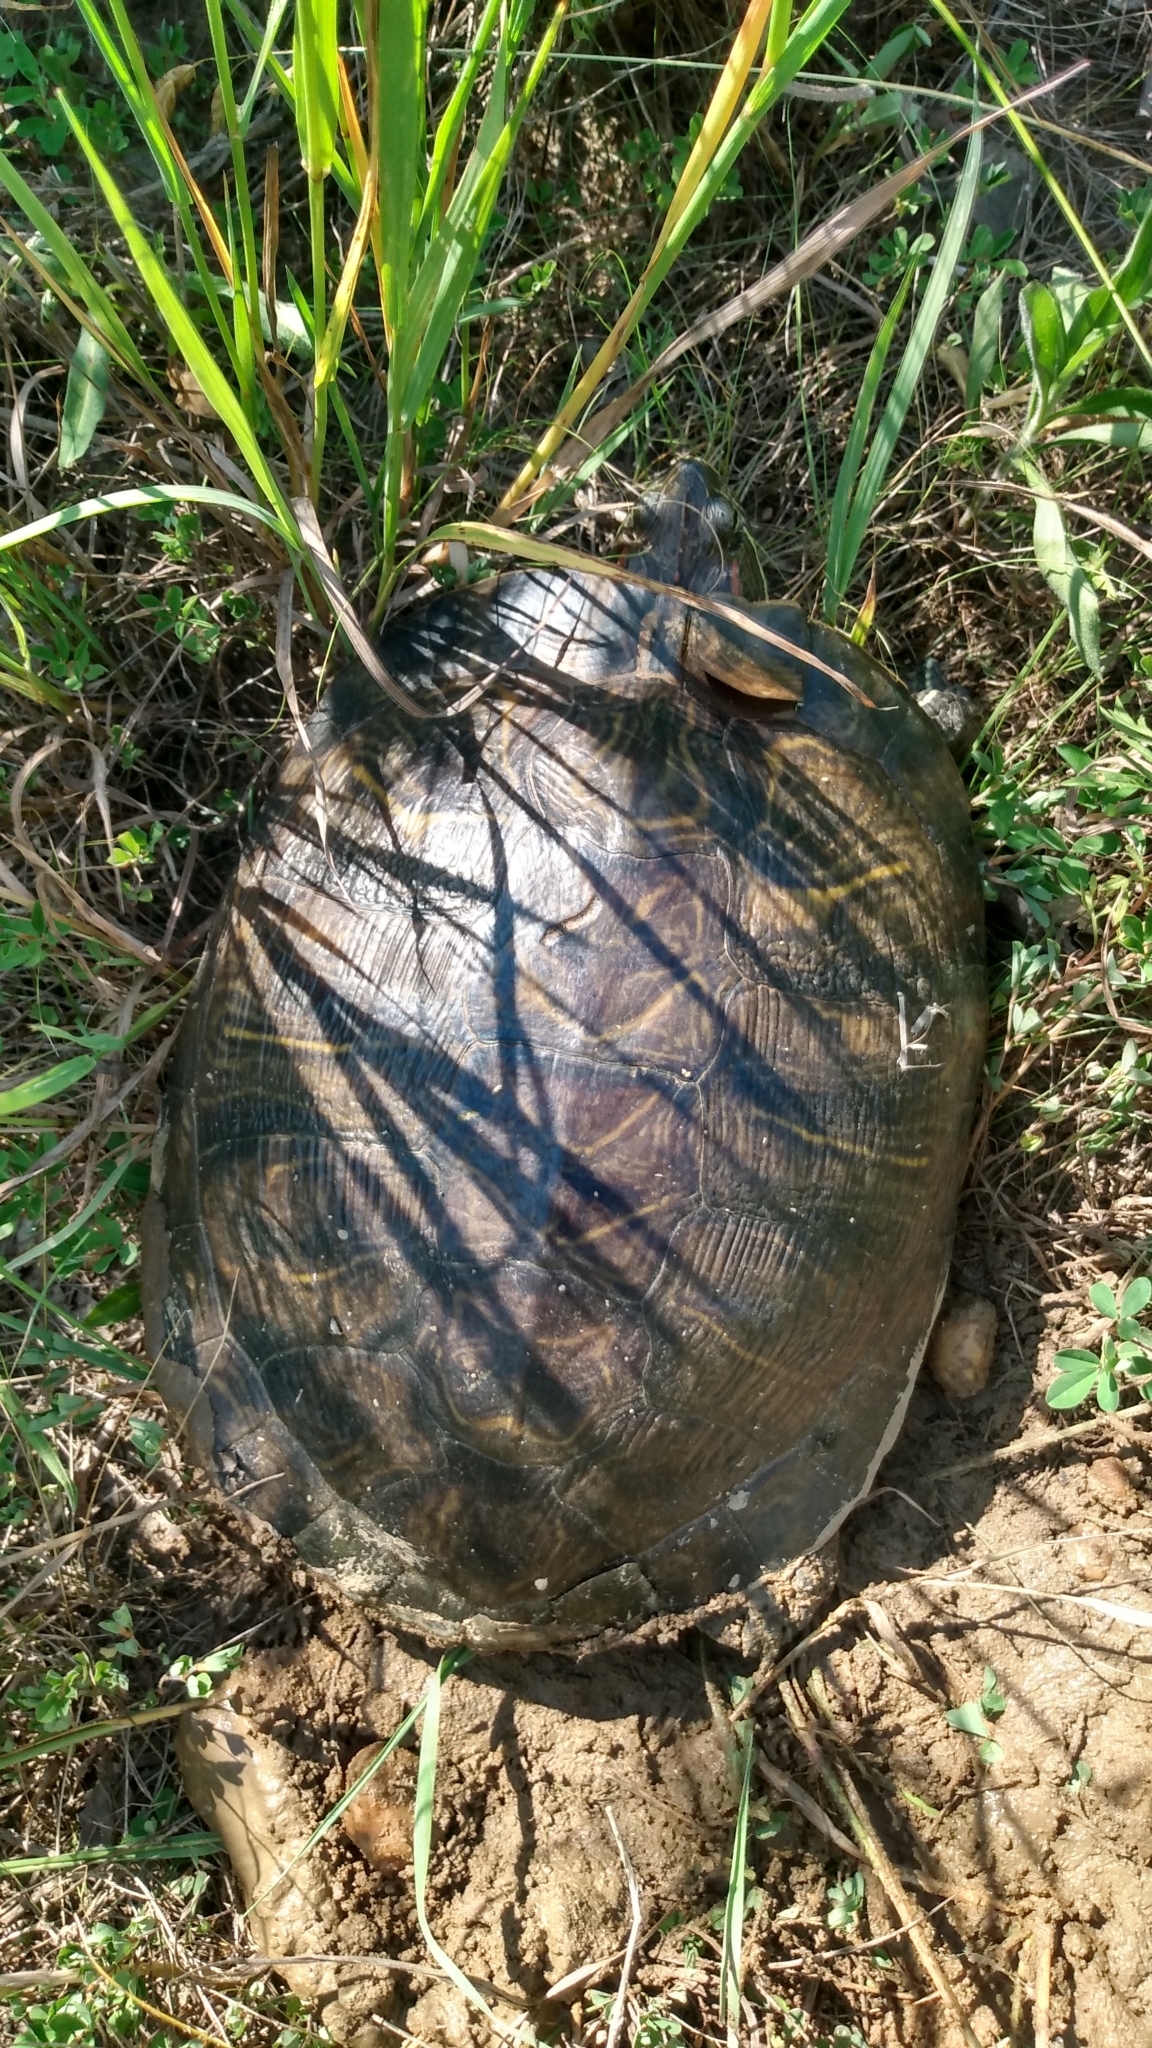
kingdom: Animalia
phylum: Chordata
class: Testudines
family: Emydidae
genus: Trachemys
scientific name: Trachemys scripta
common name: Slider
